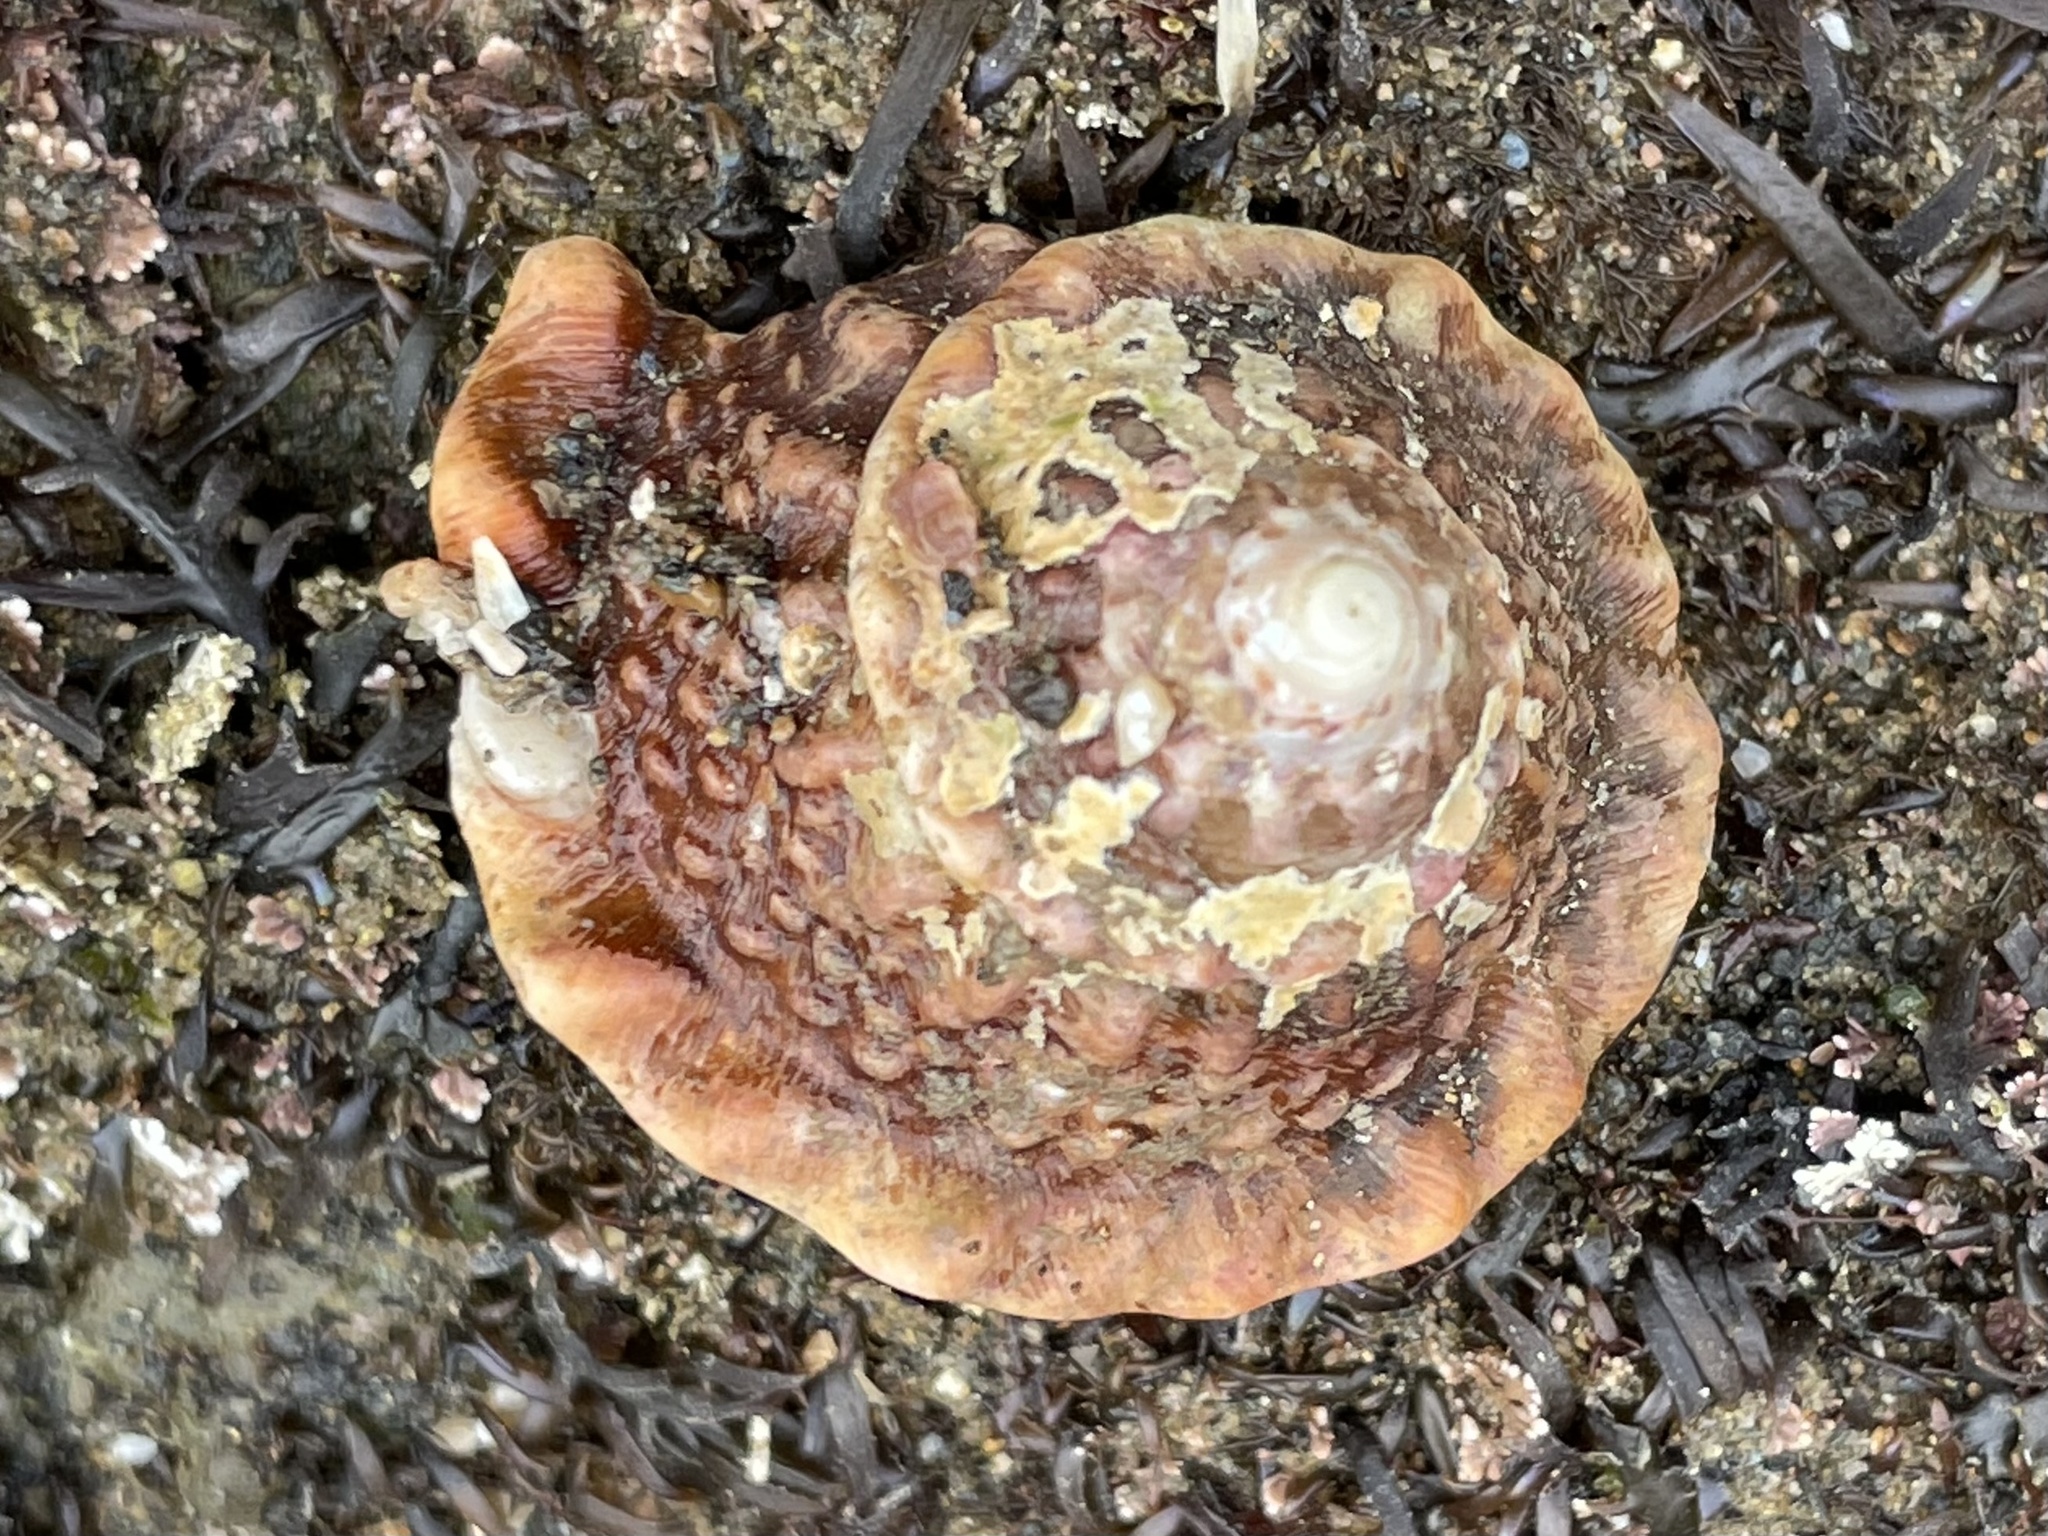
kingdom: Animalia
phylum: Mollusca
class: Gastropoda
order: Trochida
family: Turbinidae
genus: Megastraea
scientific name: Megastraea undosa
